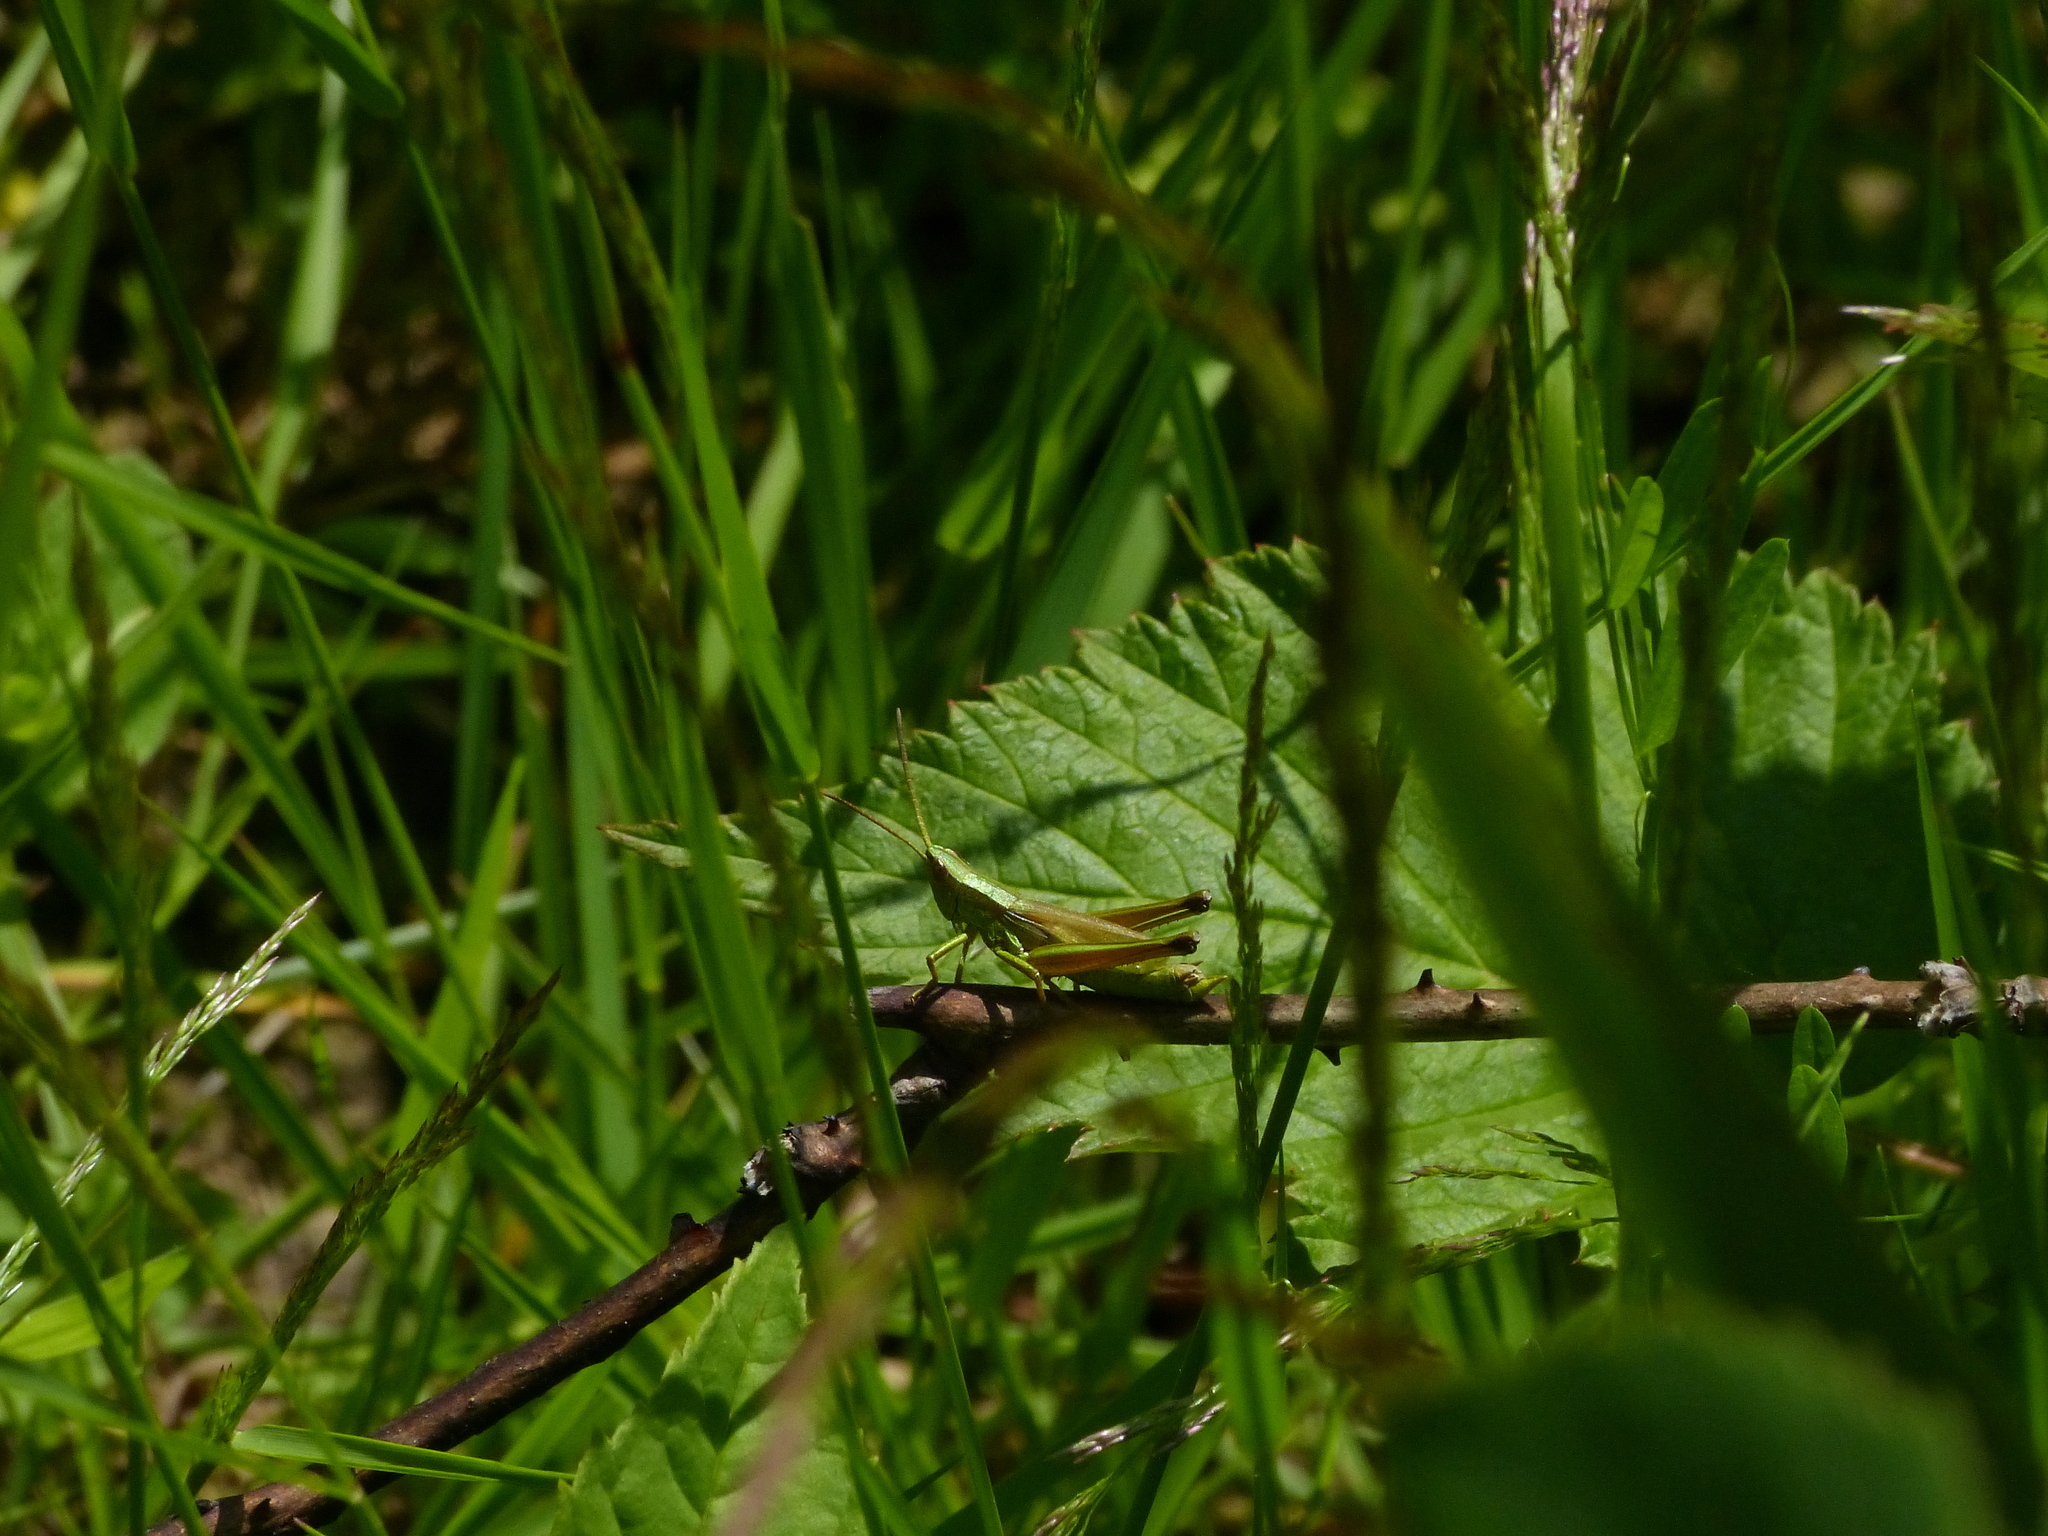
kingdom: Animalia
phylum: Arthropoda
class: Insecta
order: Orthoptera
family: Acrididae
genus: Chrysochraon
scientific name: Chrysochraon dispar
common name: Large gold grasshopper
